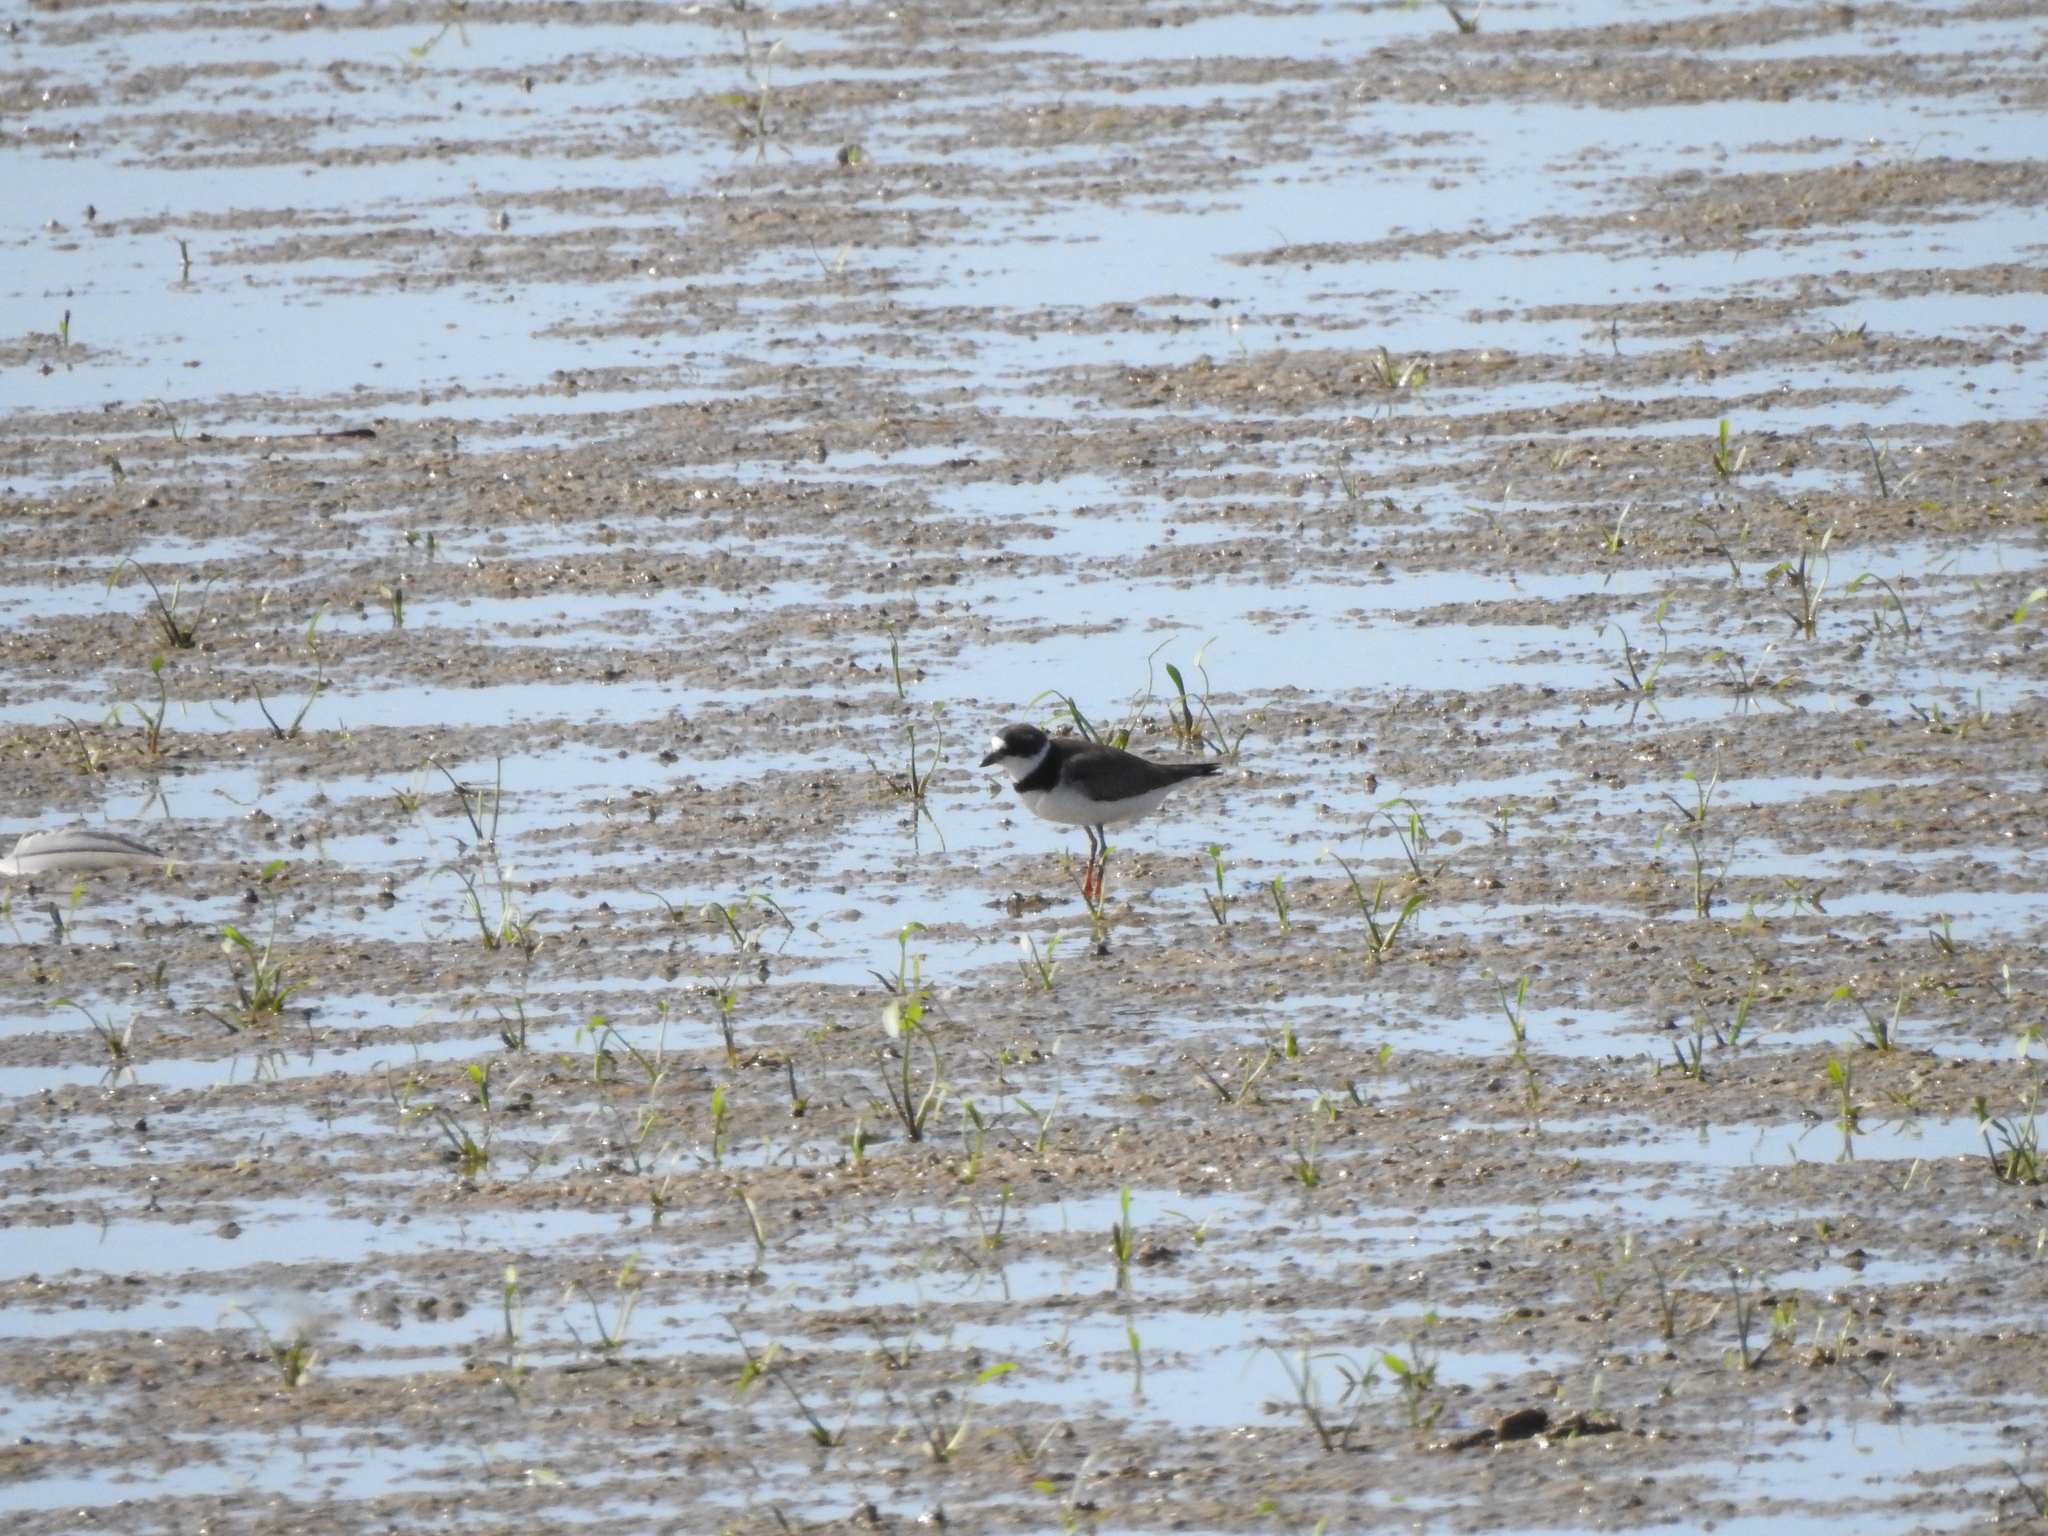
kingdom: Animalia
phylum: Chordata
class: Aves
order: Charadriiformes
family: Charadriidae
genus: Charadrius
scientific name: Charadrius semipalmatus
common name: Semipalmated plover
